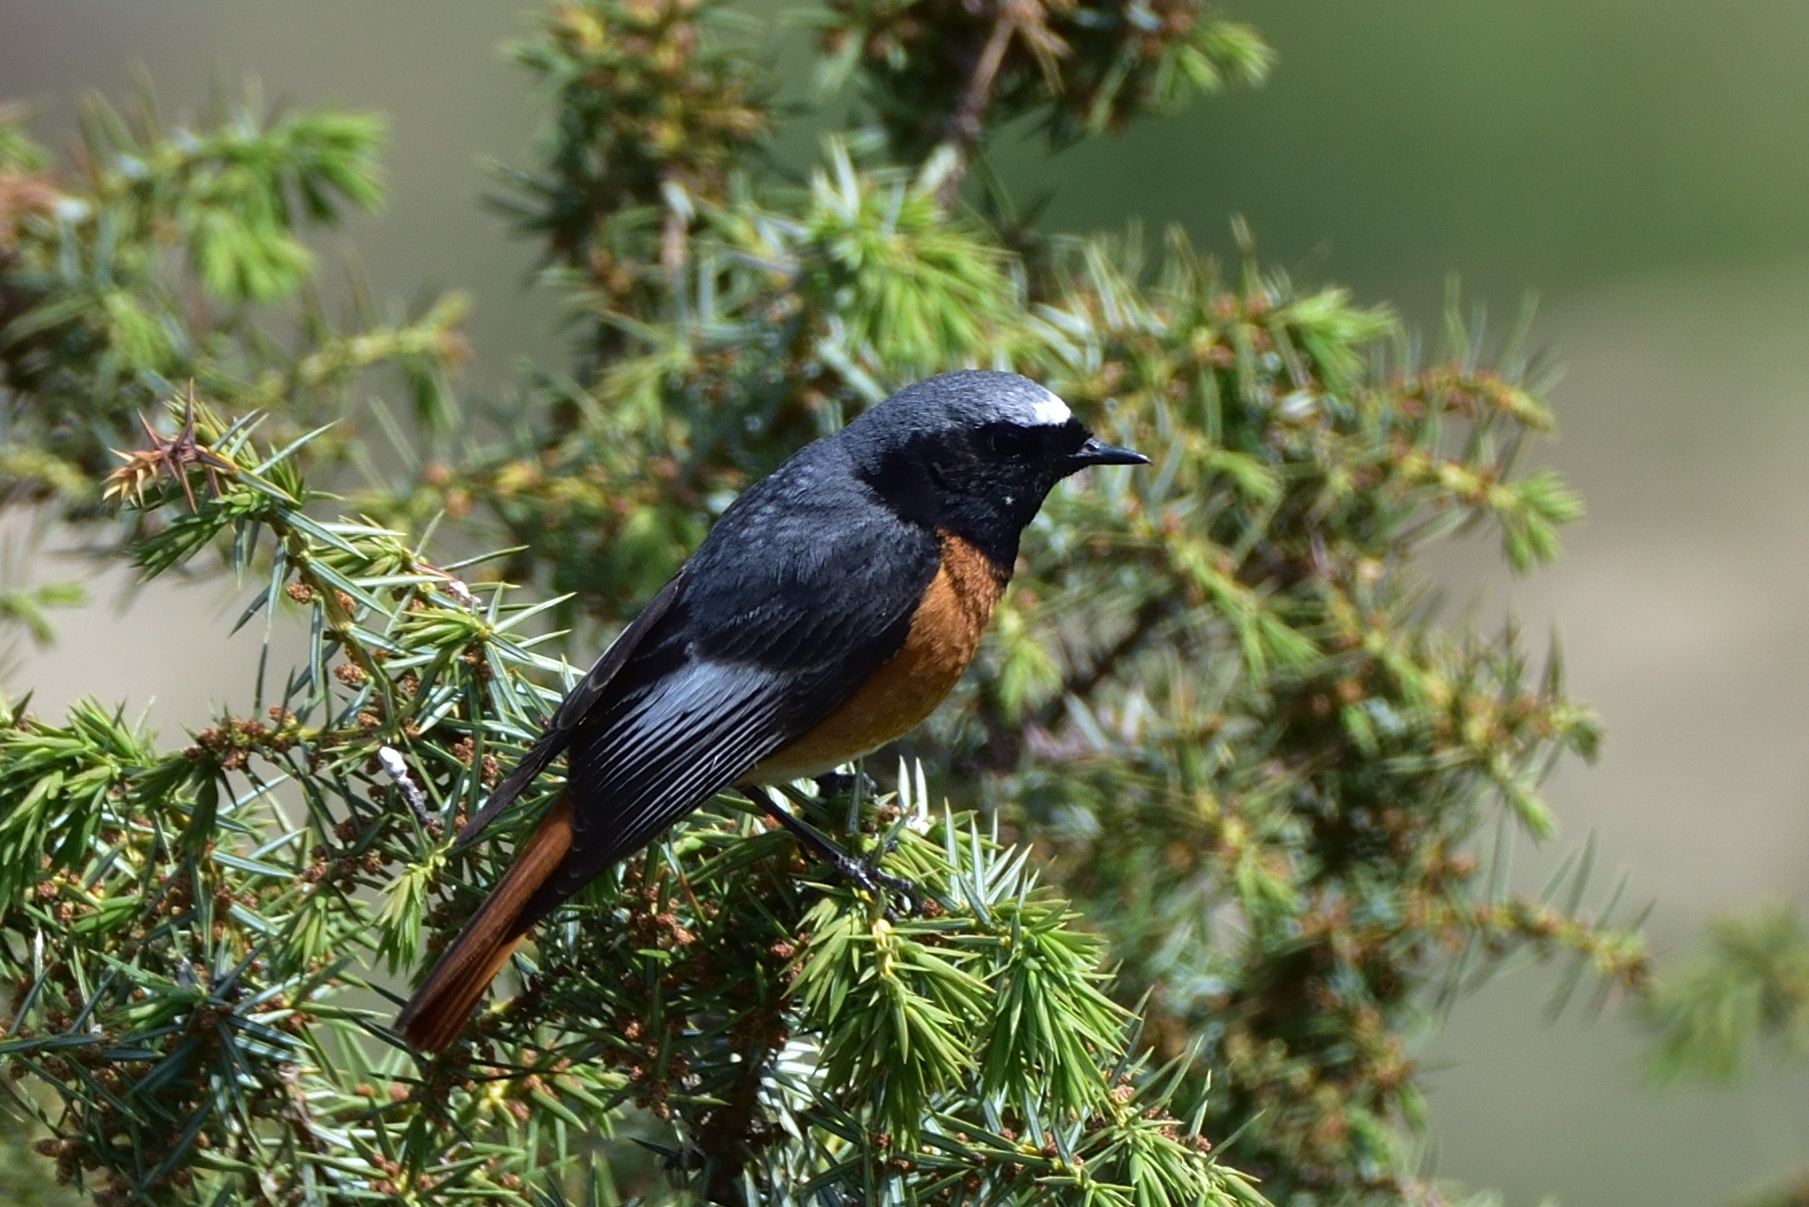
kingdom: Animalia
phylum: Chordata
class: Aves
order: Passeriformes
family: Muscicapidae
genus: Phoenicurus
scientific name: Phoenicurus phoenicurus
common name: Common redstart
